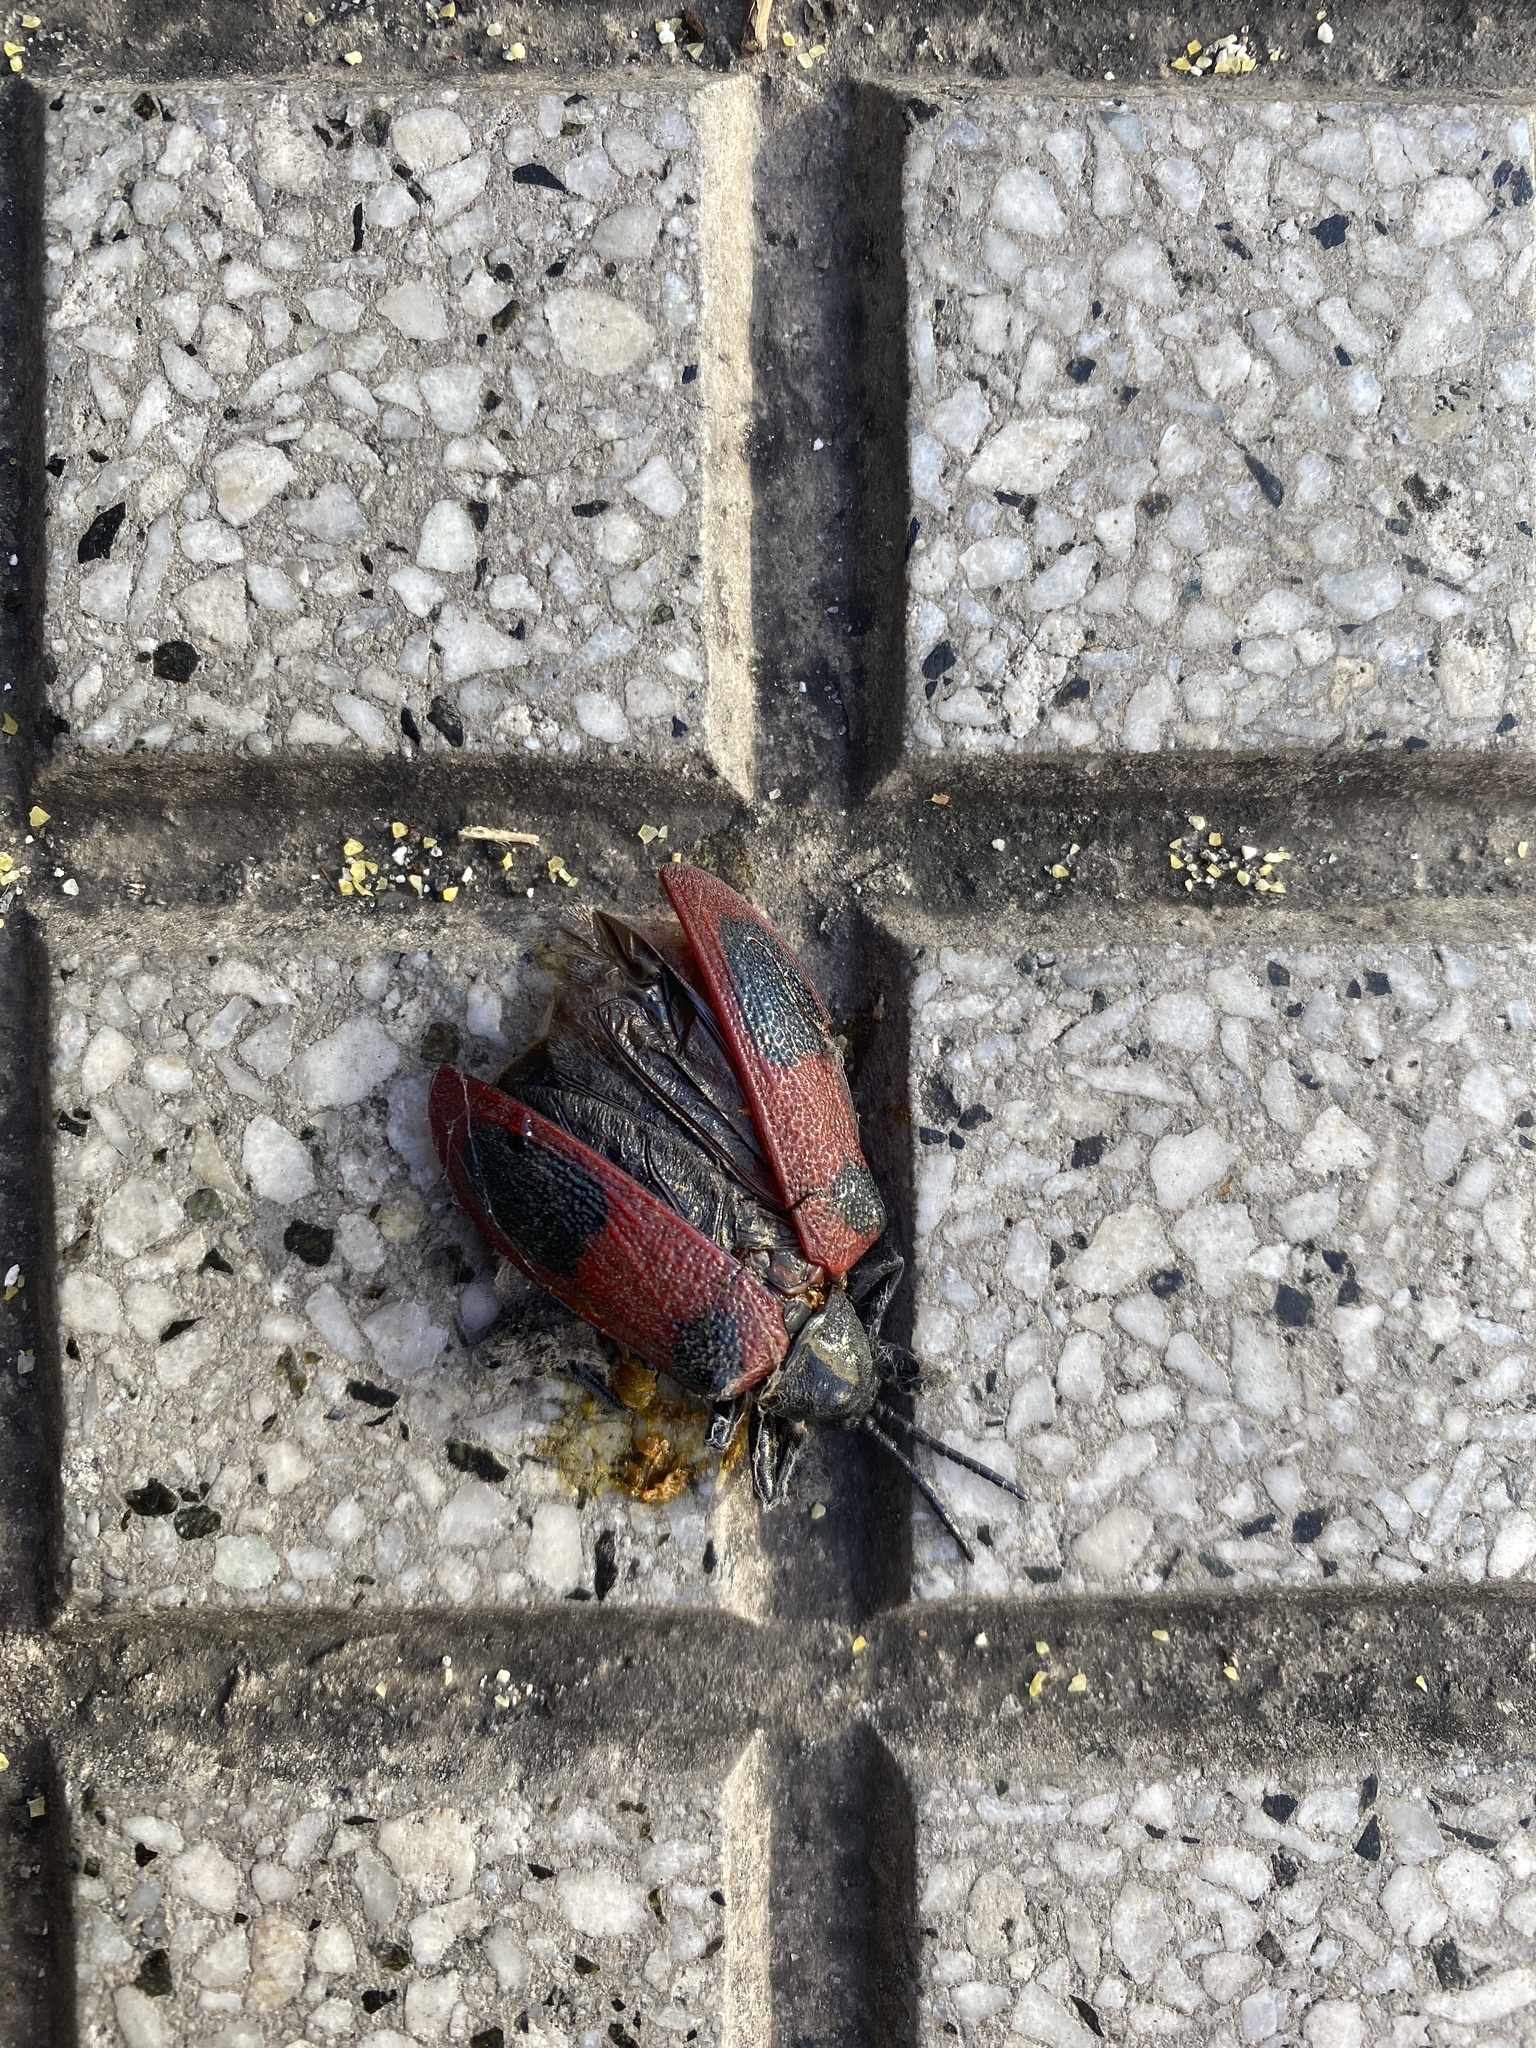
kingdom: Animalia
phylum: Arthropoda
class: Insecta
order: Coleoptera
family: Chrysomelidae
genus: Coraliomela
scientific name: Coraliomela quadrimaculata
